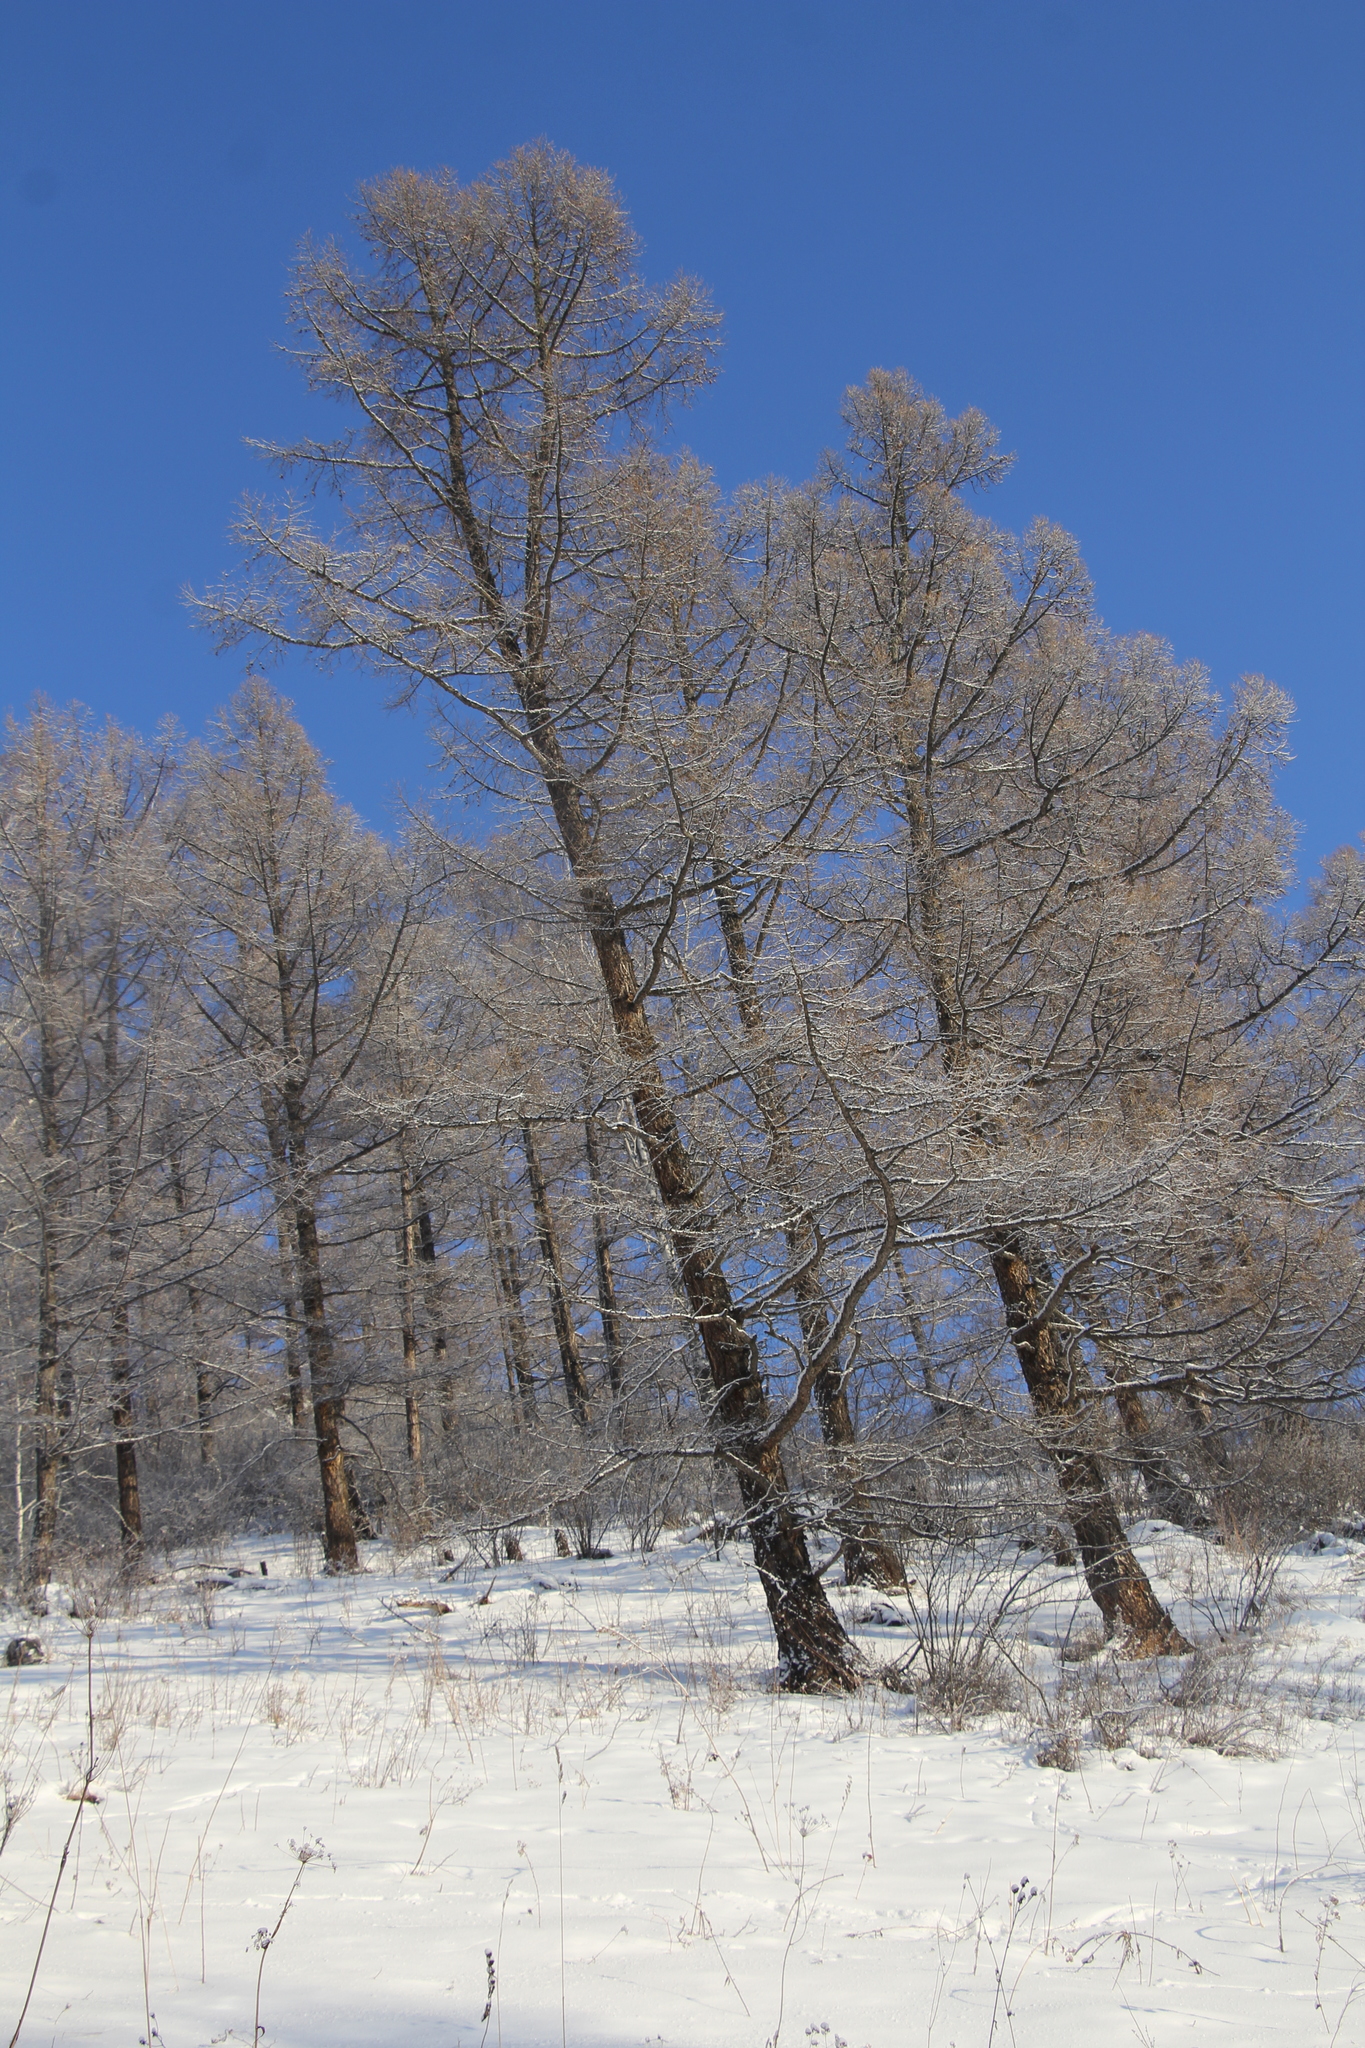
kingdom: Plantae
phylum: Tracheophyta
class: Pinopsida
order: Pinales
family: Pinaceae
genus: Larix
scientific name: Larix sibirica
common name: Siberian larch
